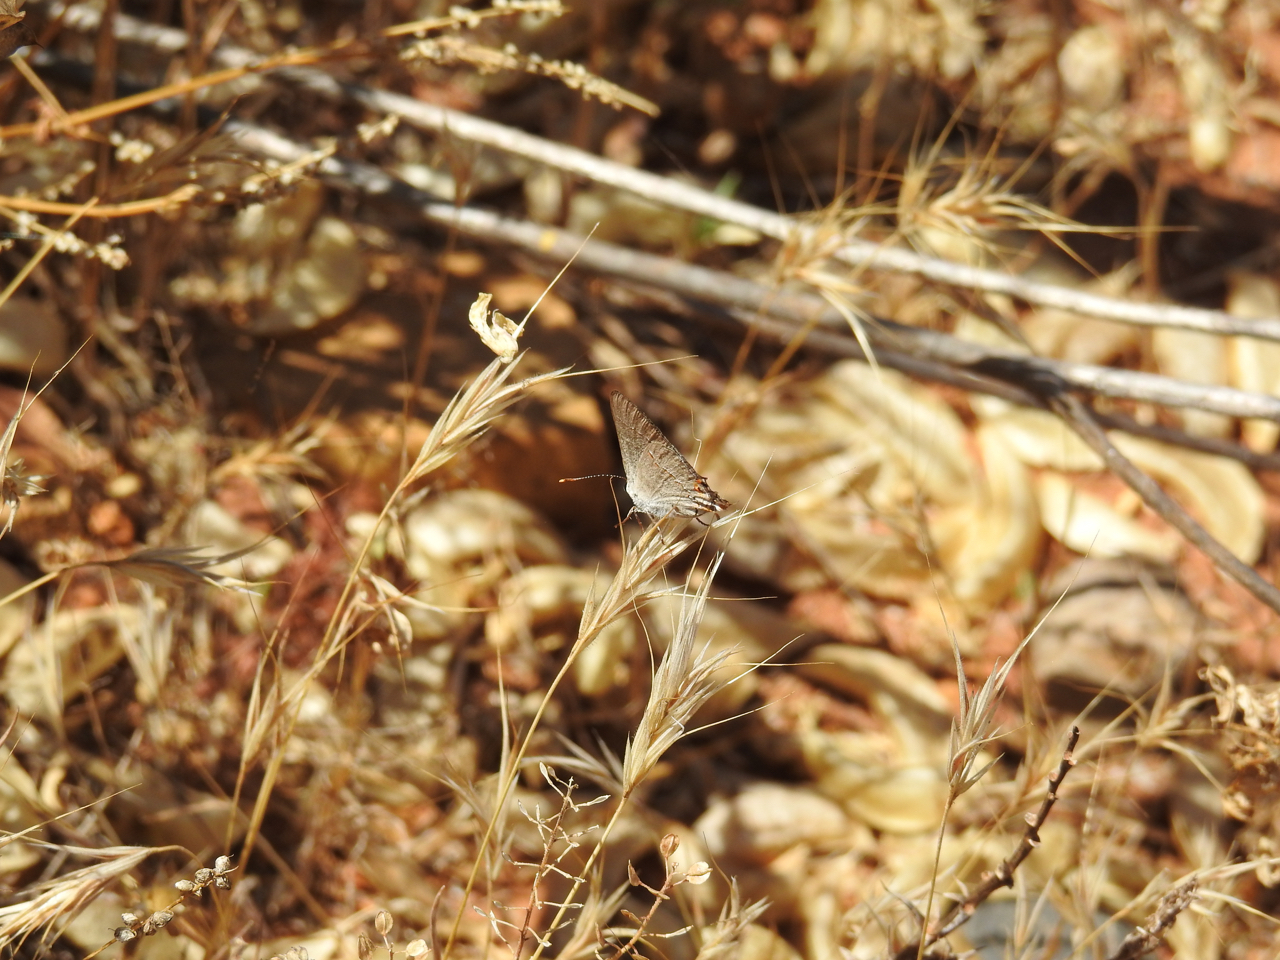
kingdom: Animalia
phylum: Arthropoda
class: Insecta
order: Lepidoptera
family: Lycaenidae
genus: Strymon
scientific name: Strymon melinus
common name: Gray hairstreak
